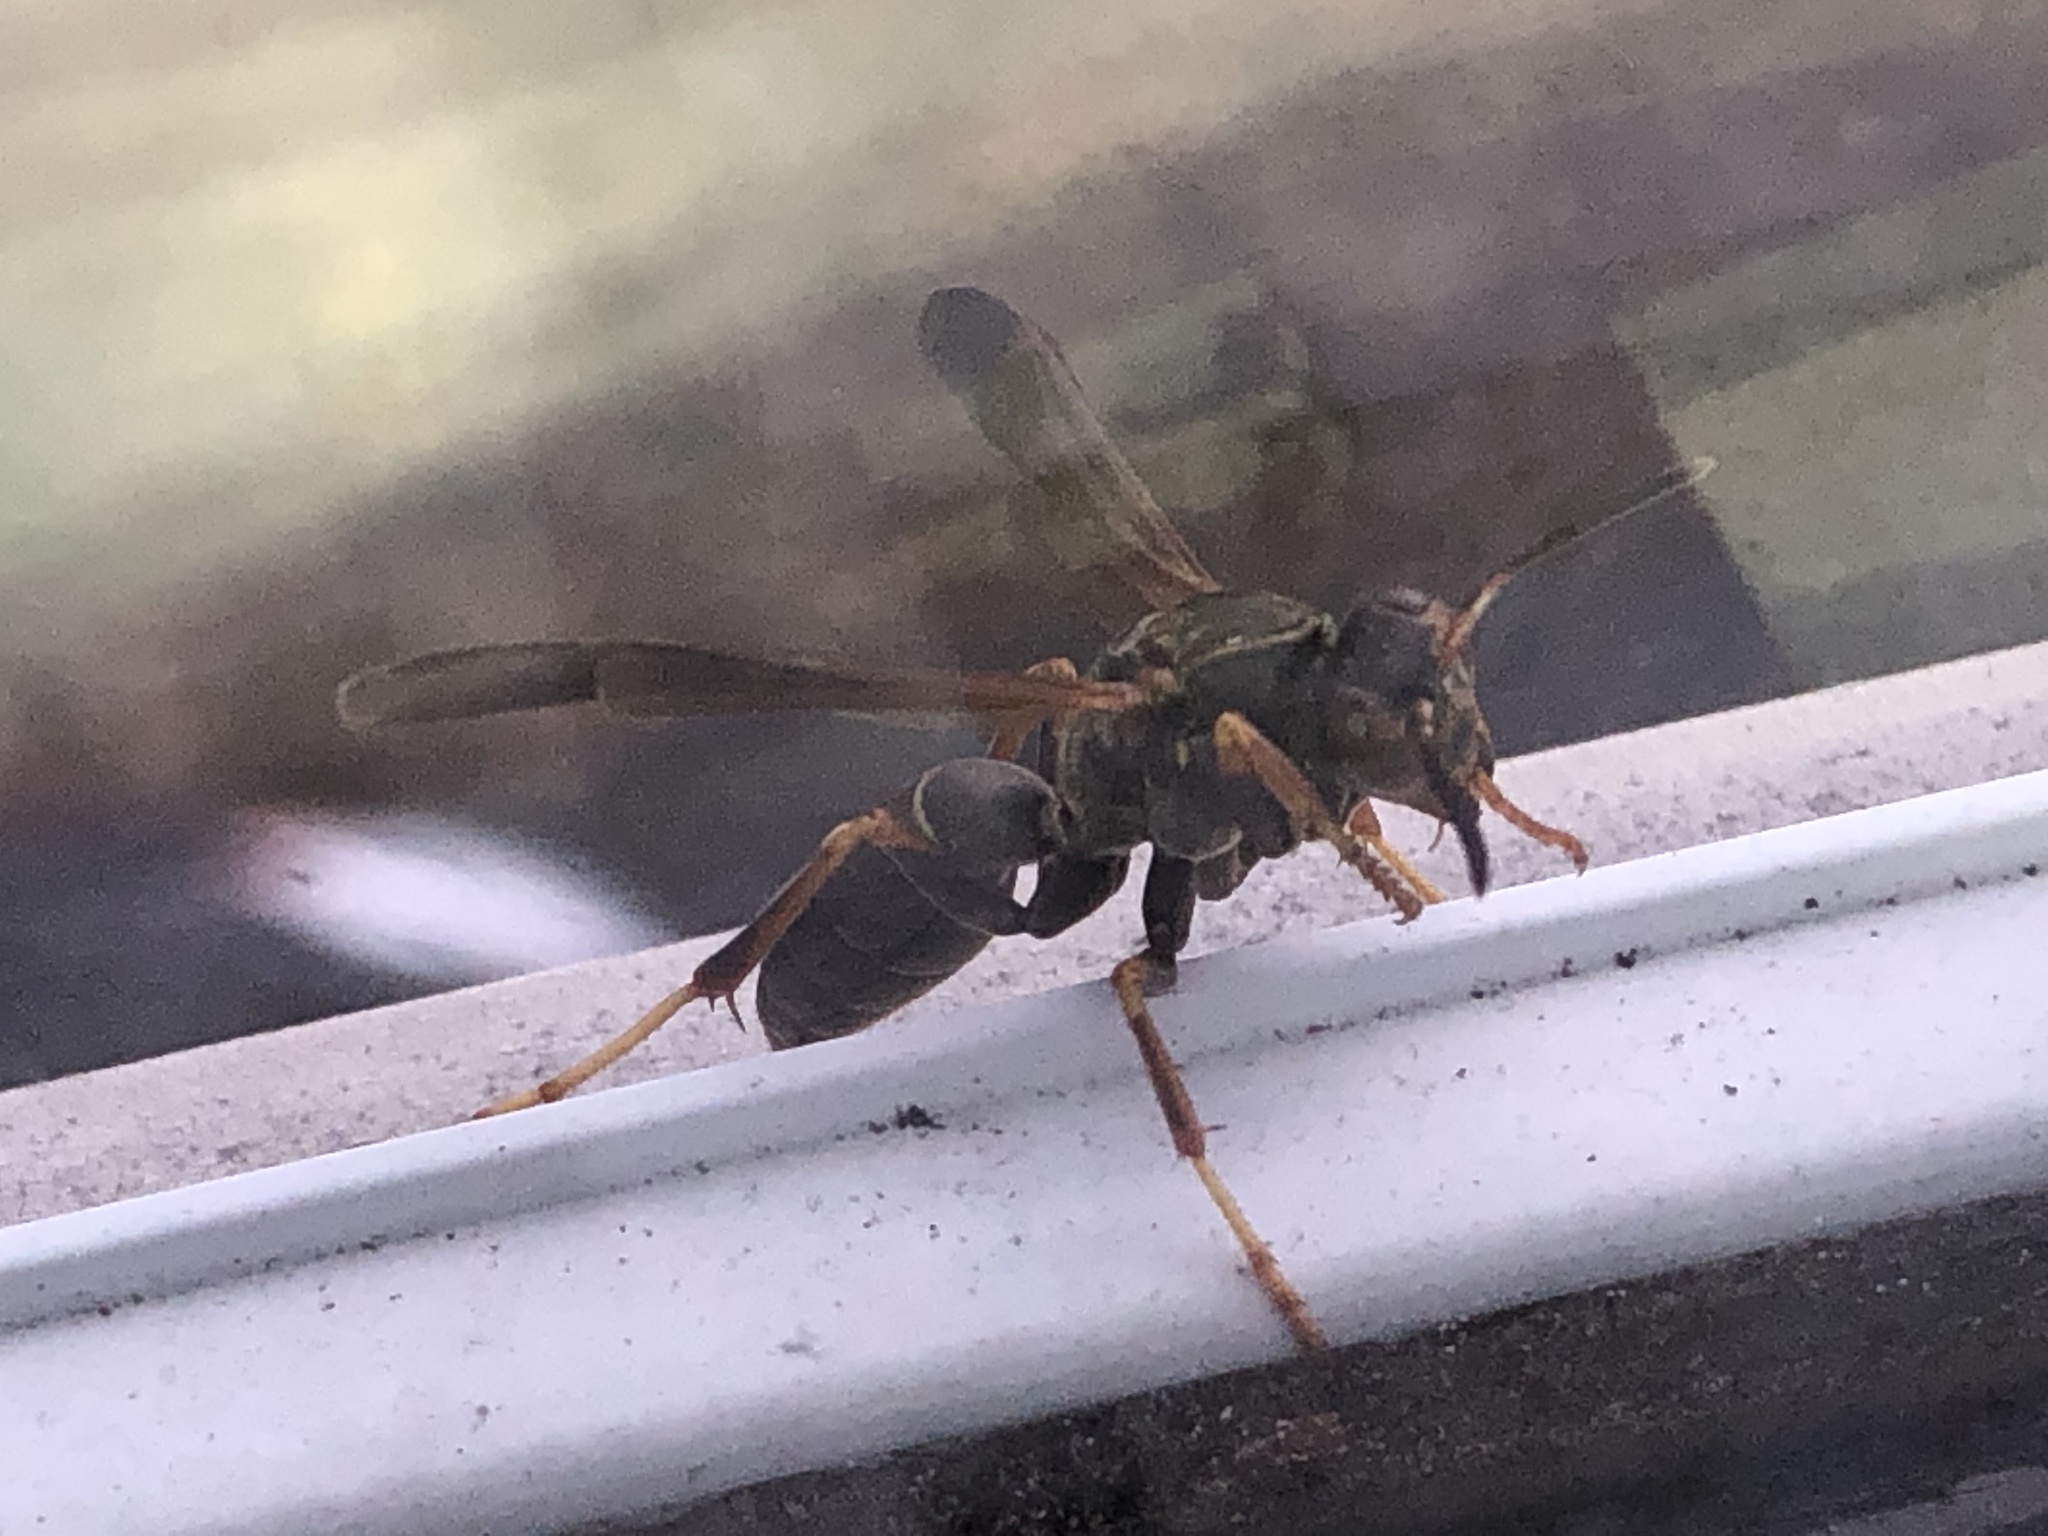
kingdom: Animalia
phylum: Arthropoda
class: Insecta
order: Hymenoptera
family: Eumenidae
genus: Polistes
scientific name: Polistes fuscatus
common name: Dark paper wasp
